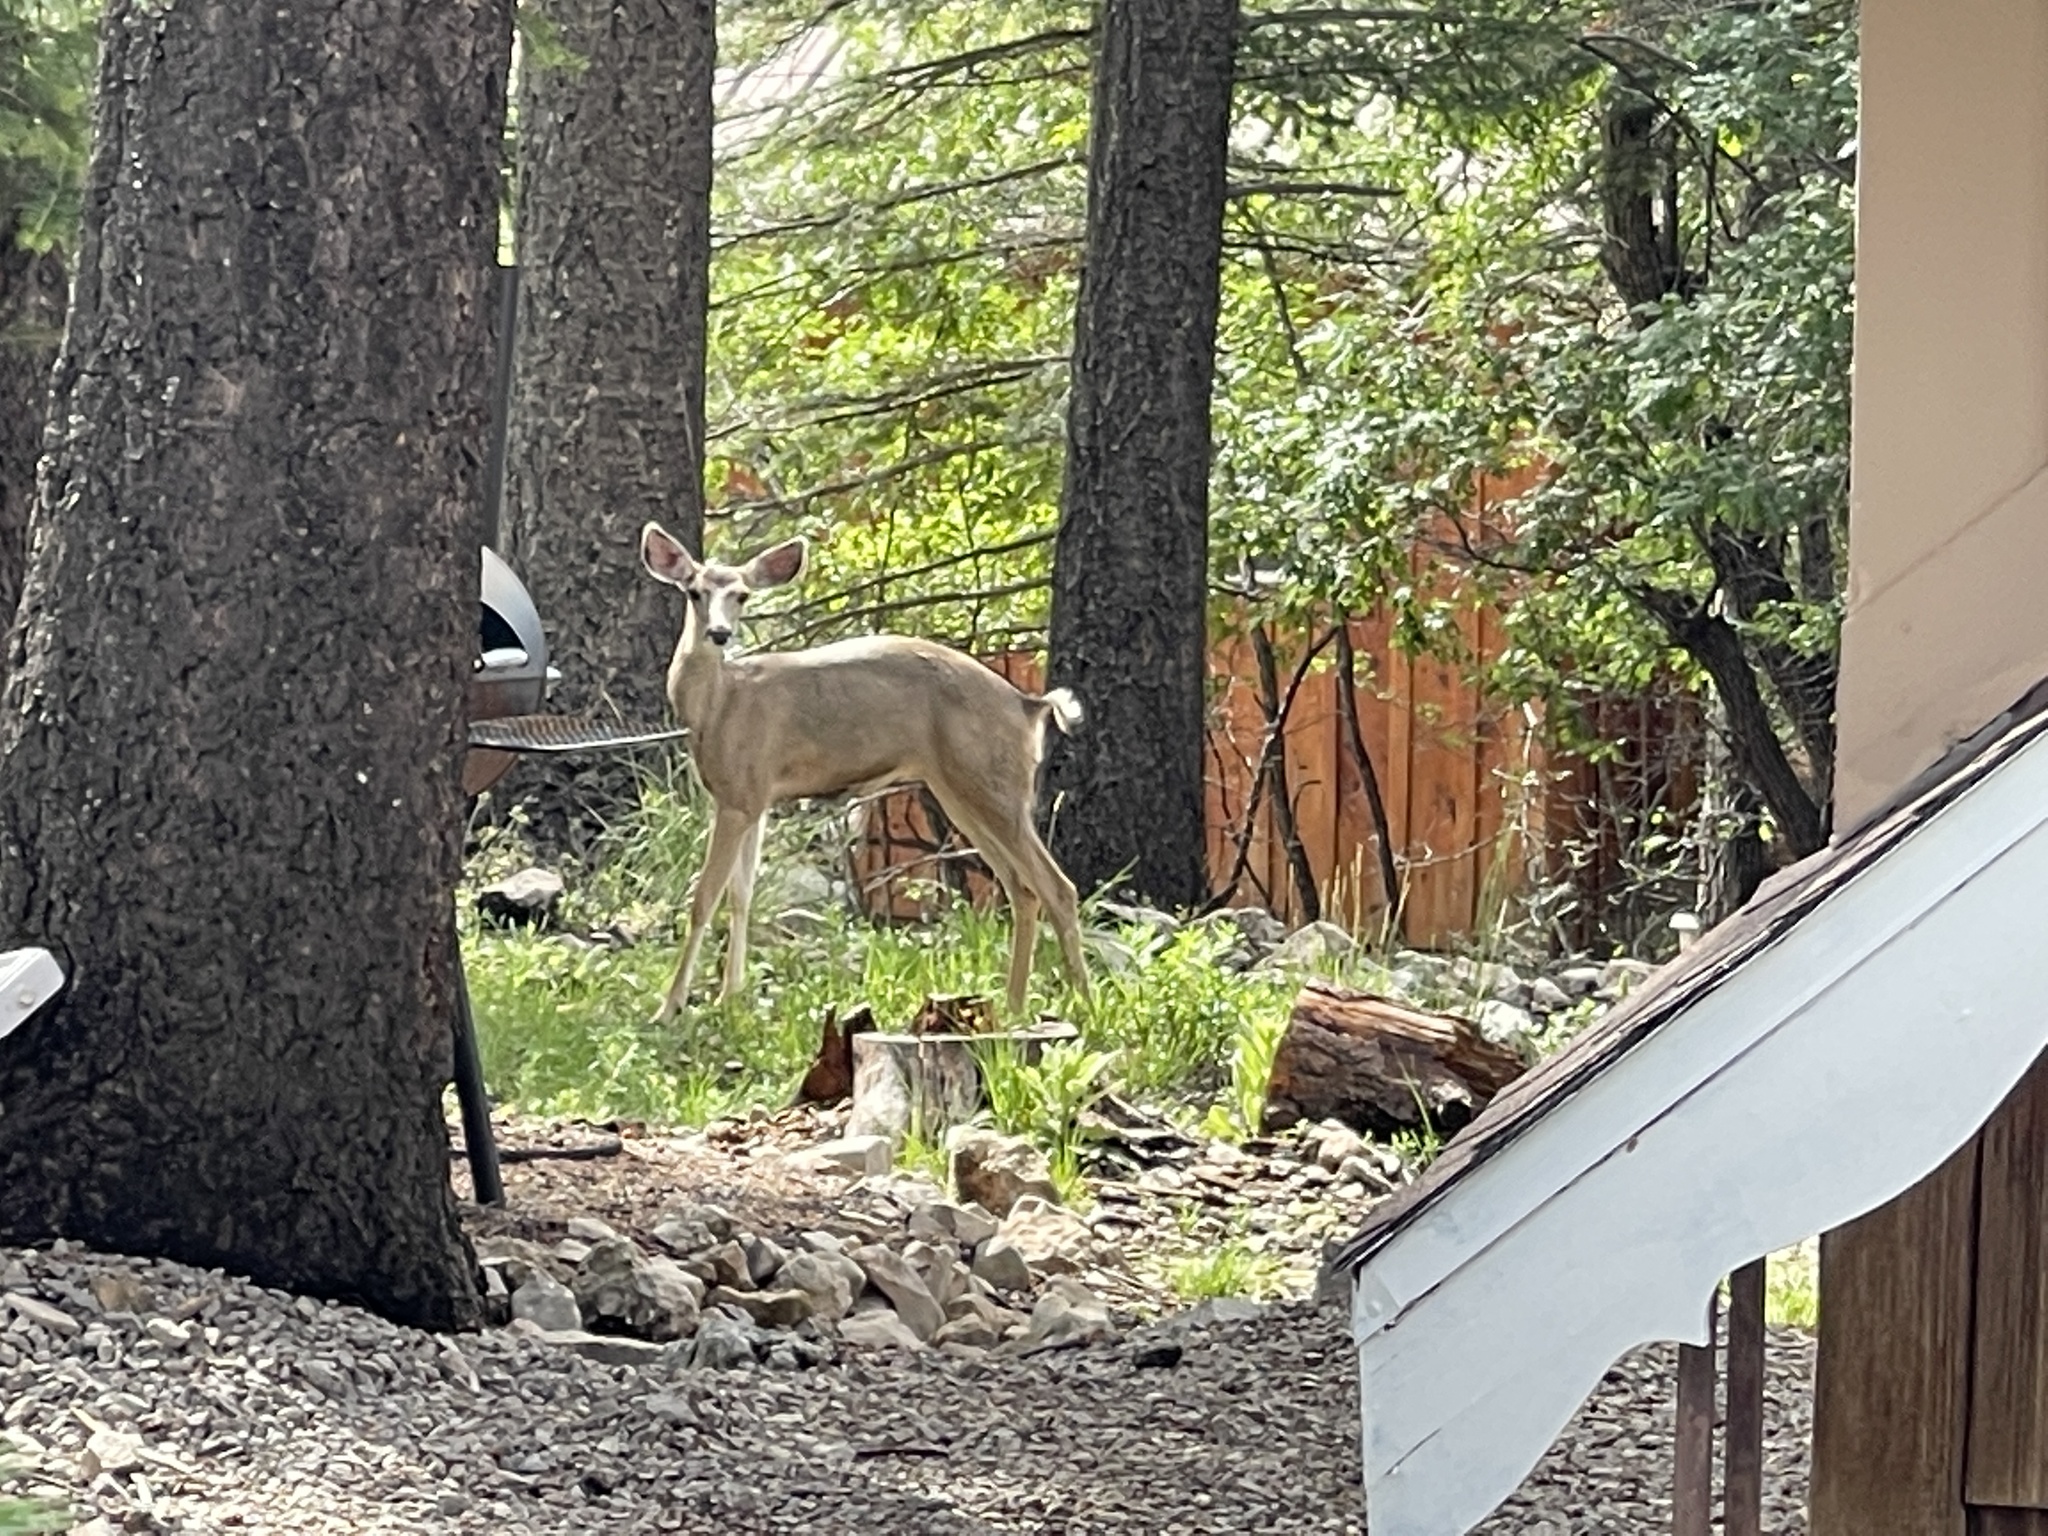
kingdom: Animalia
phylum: Chordata
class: Mammalia
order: Artiodactyla
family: Cervidae
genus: Odocoileus
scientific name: Odocoileus hemionus
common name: Mule deer
